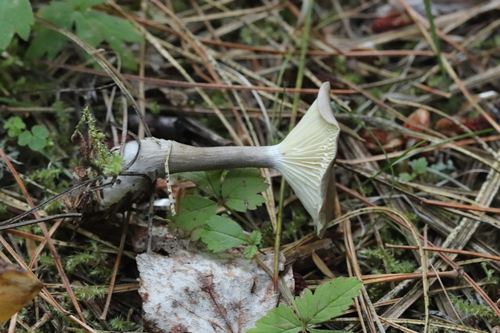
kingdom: Fungi
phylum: Basidiomycota
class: Agaricomycetes
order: Agaricales
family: Hygrophoraceae
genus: Ampulloclitocybe
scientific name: Ampulloclitocybe clavipes
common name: Club foot
